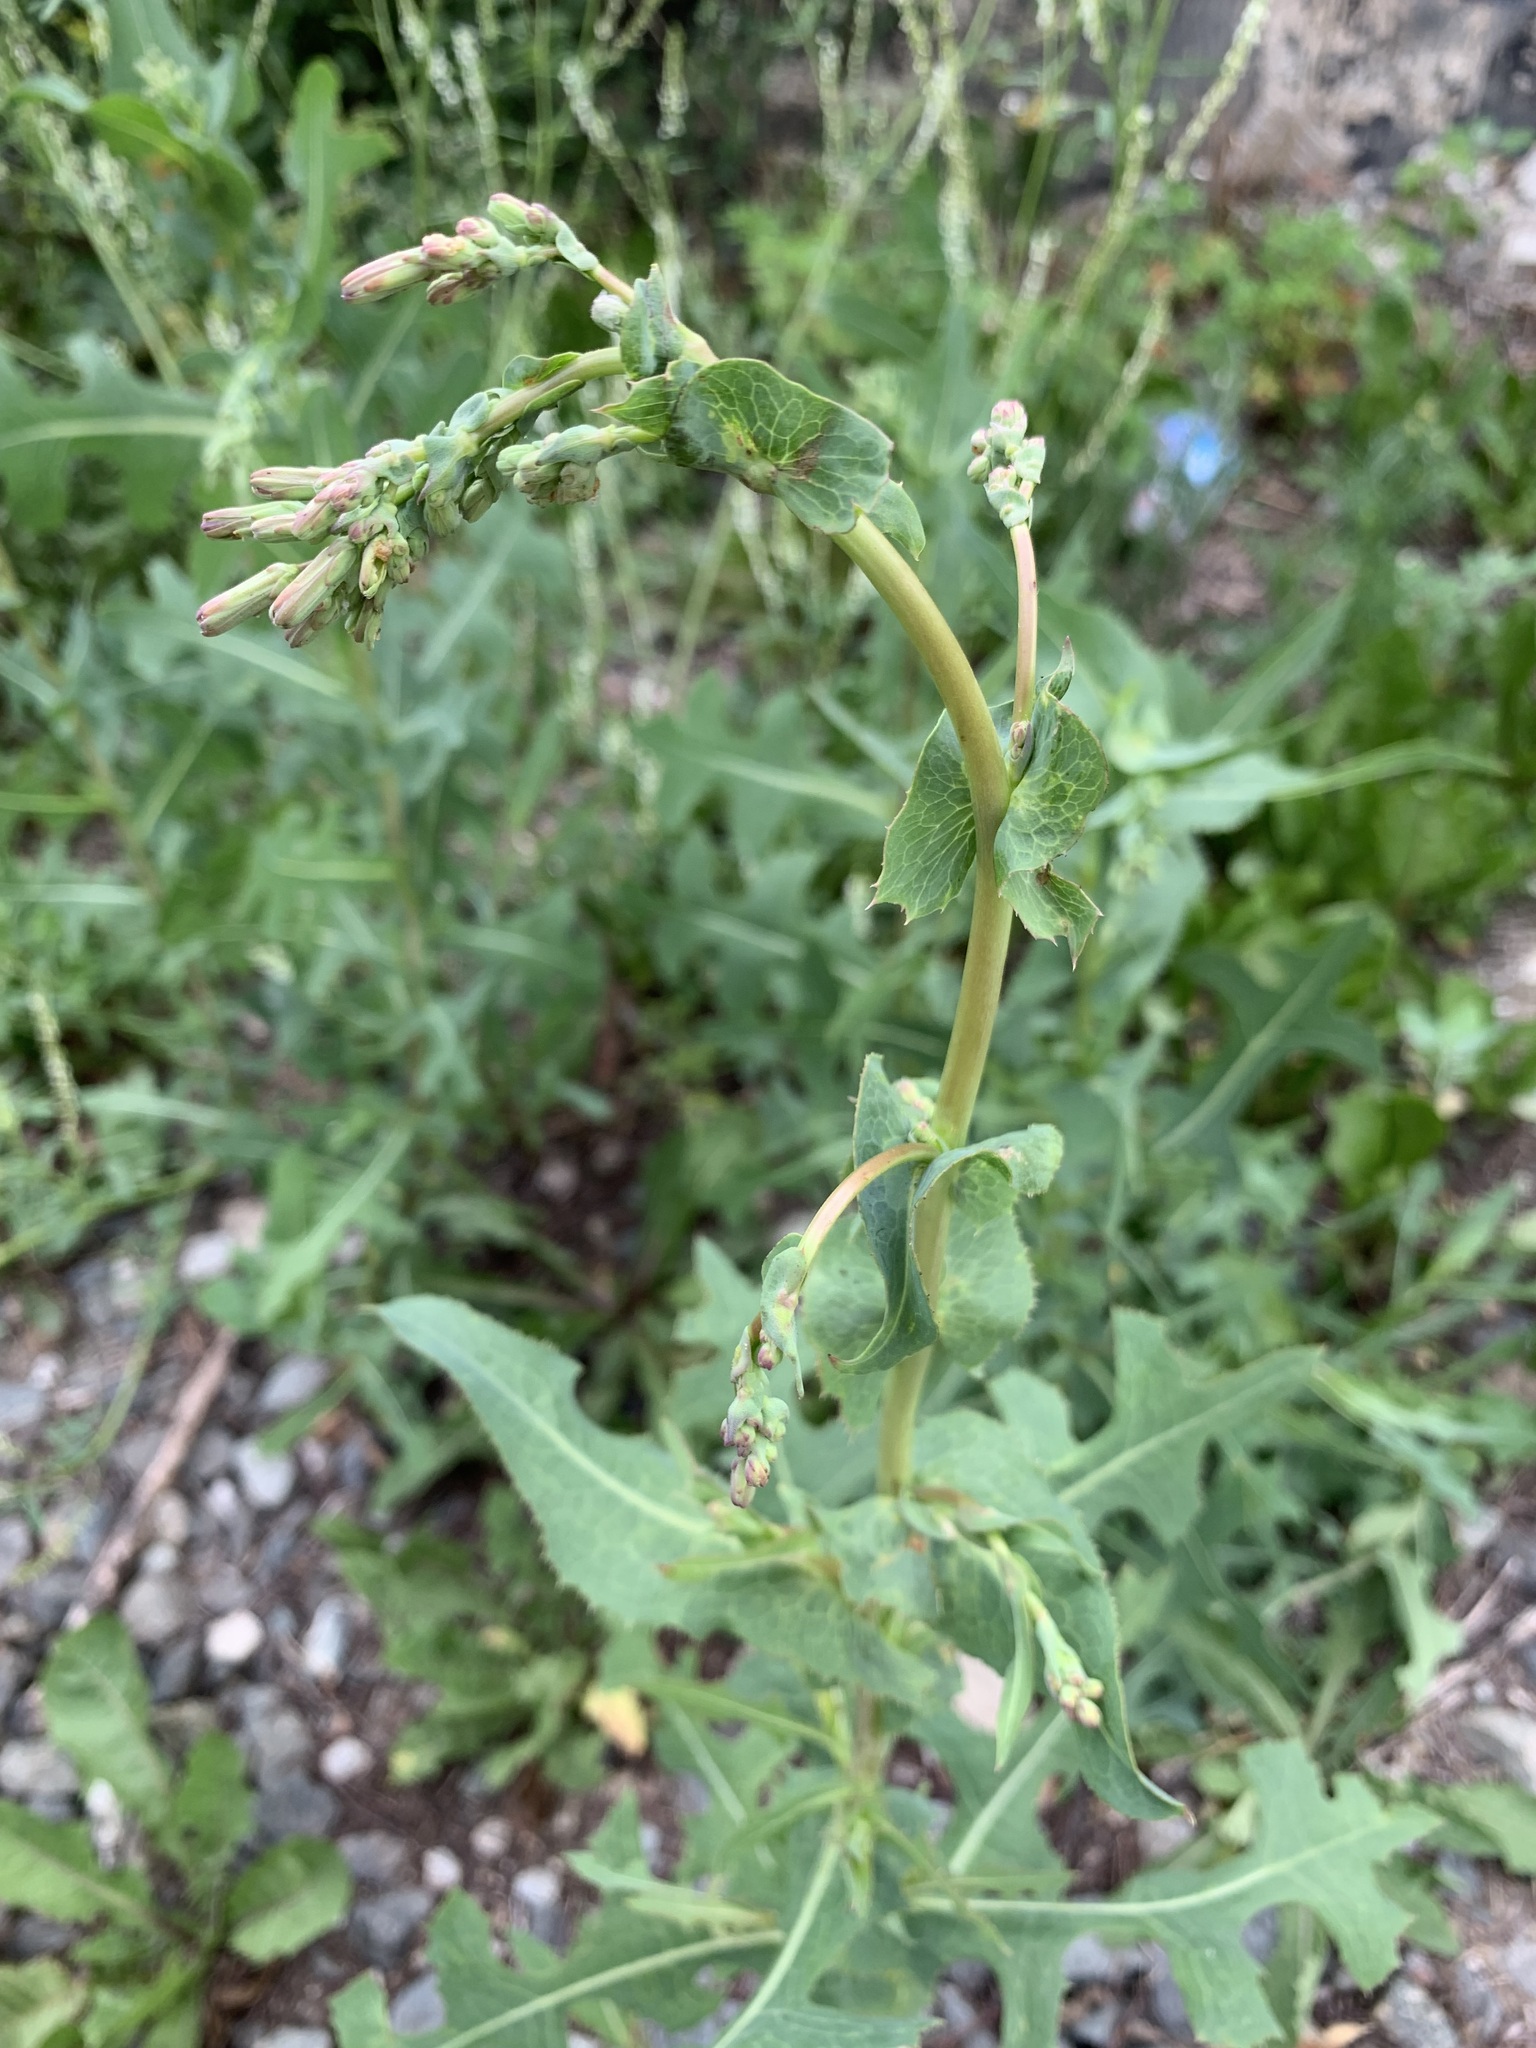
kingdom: Plantae
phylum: Tracheophyta
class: Magnoliopsida
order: Asterales
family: Asteraceae
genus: Lactuca
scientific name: Lactuca serriola
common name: Prickly lettuce
